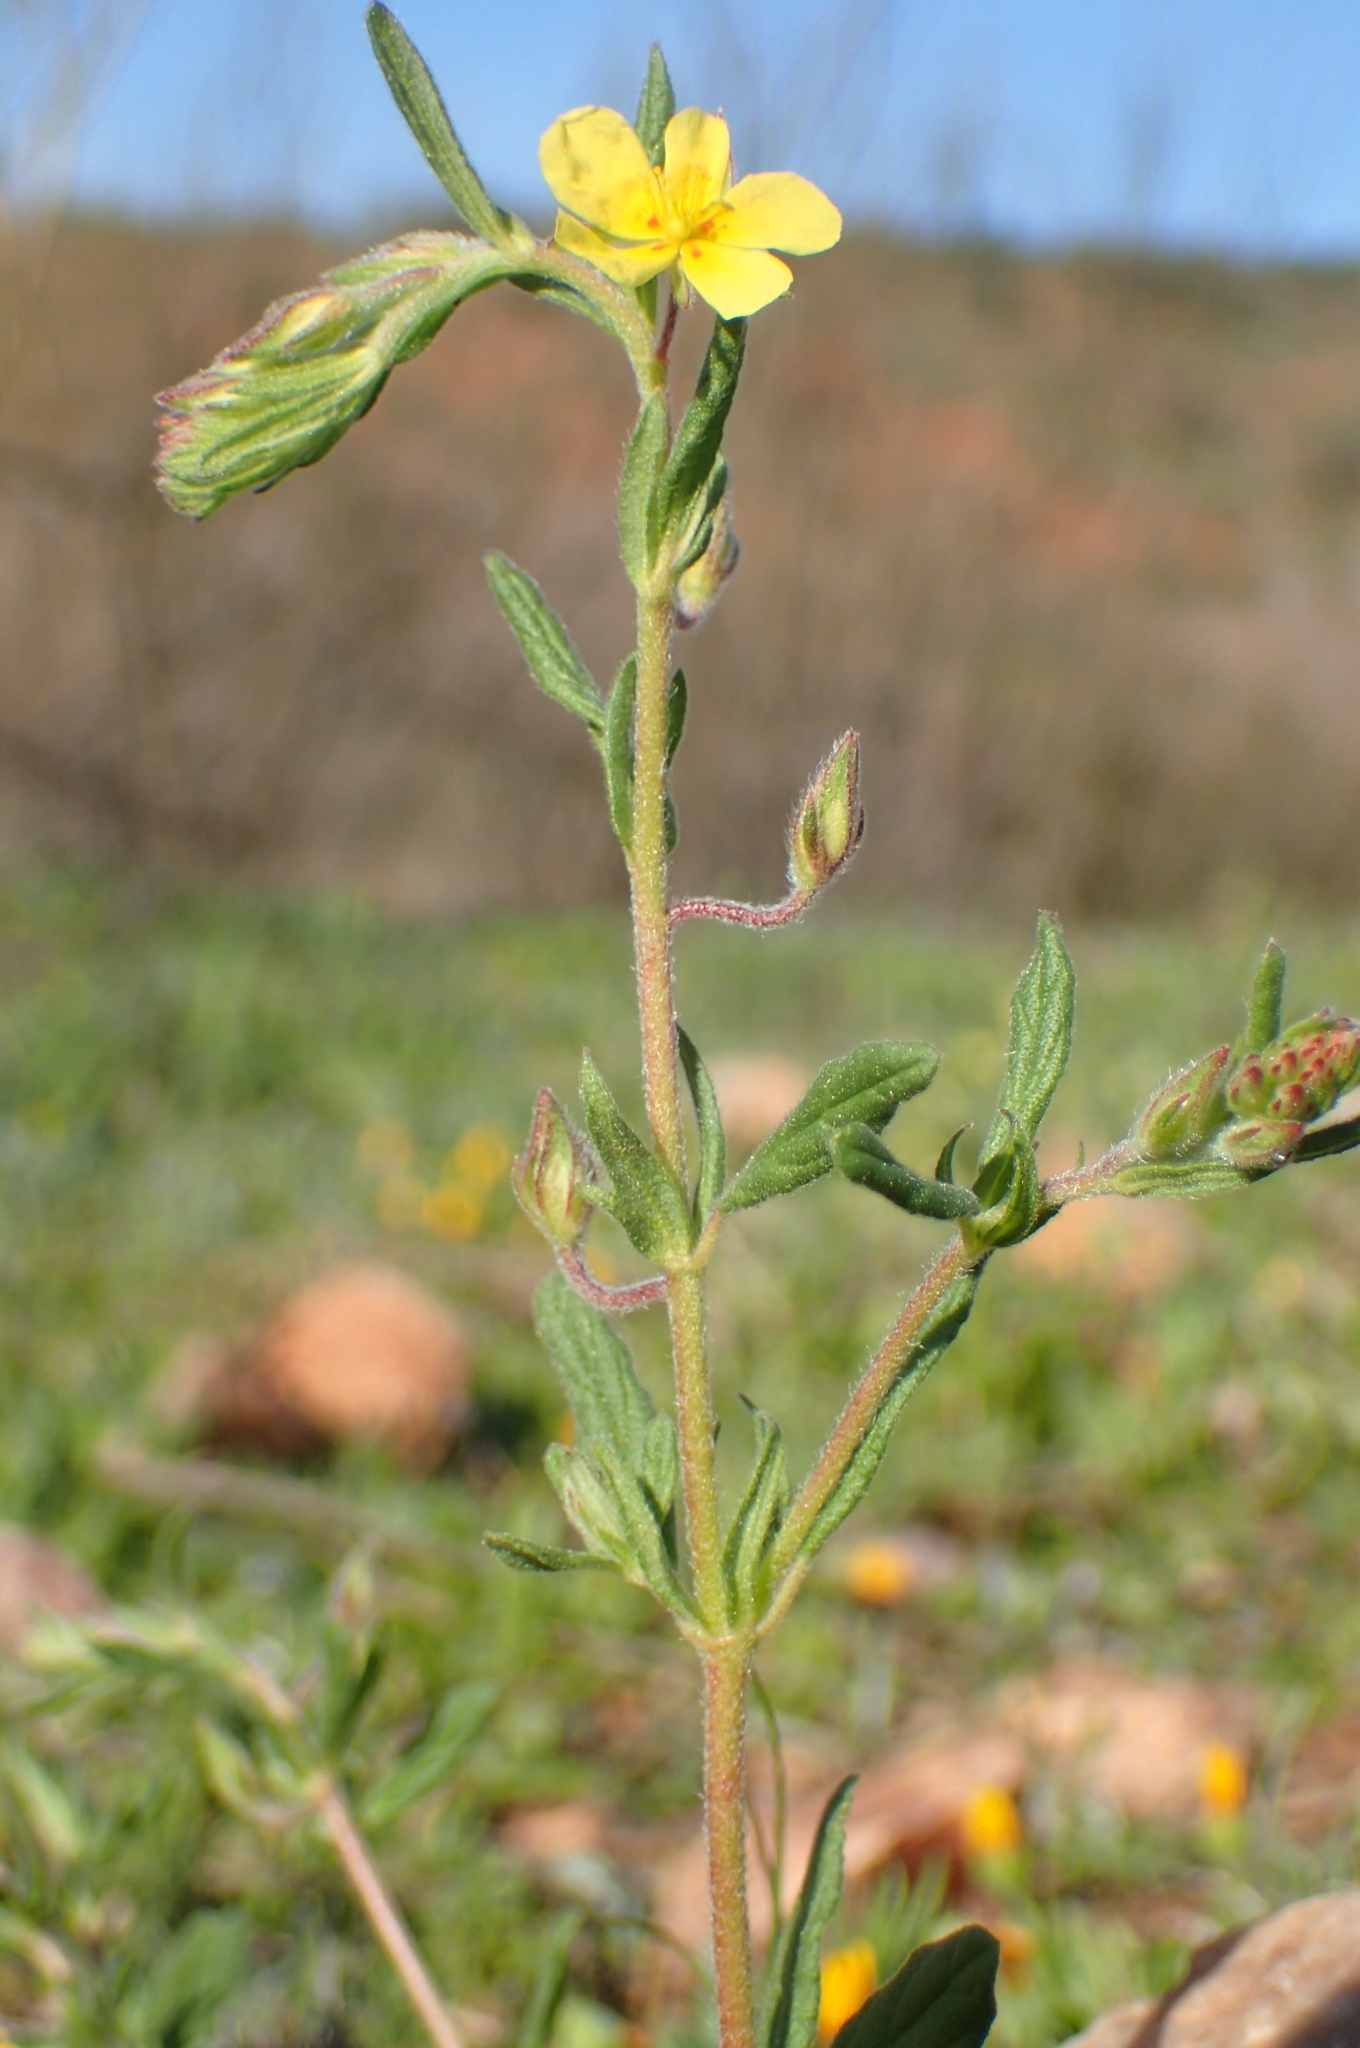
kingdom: Plantae
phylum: Tracheophyta
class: Magnoliopsida
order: Malvales
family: Cistaceae
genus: Helianthemum
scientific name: Helianthemum salicifolium
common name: Willowleaf frostweed
